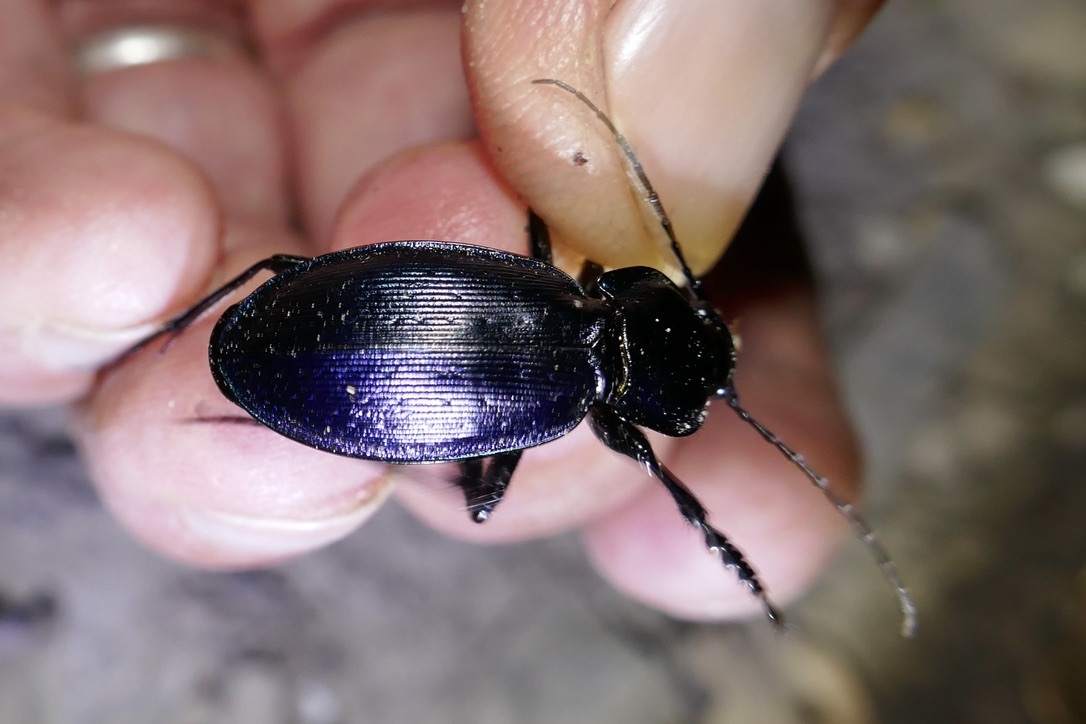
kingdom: Animalia
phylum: Arthropoda
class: Insecta
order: Coleoptera
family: Carabidae
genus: Carabus
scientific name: Carabus scheidleri
